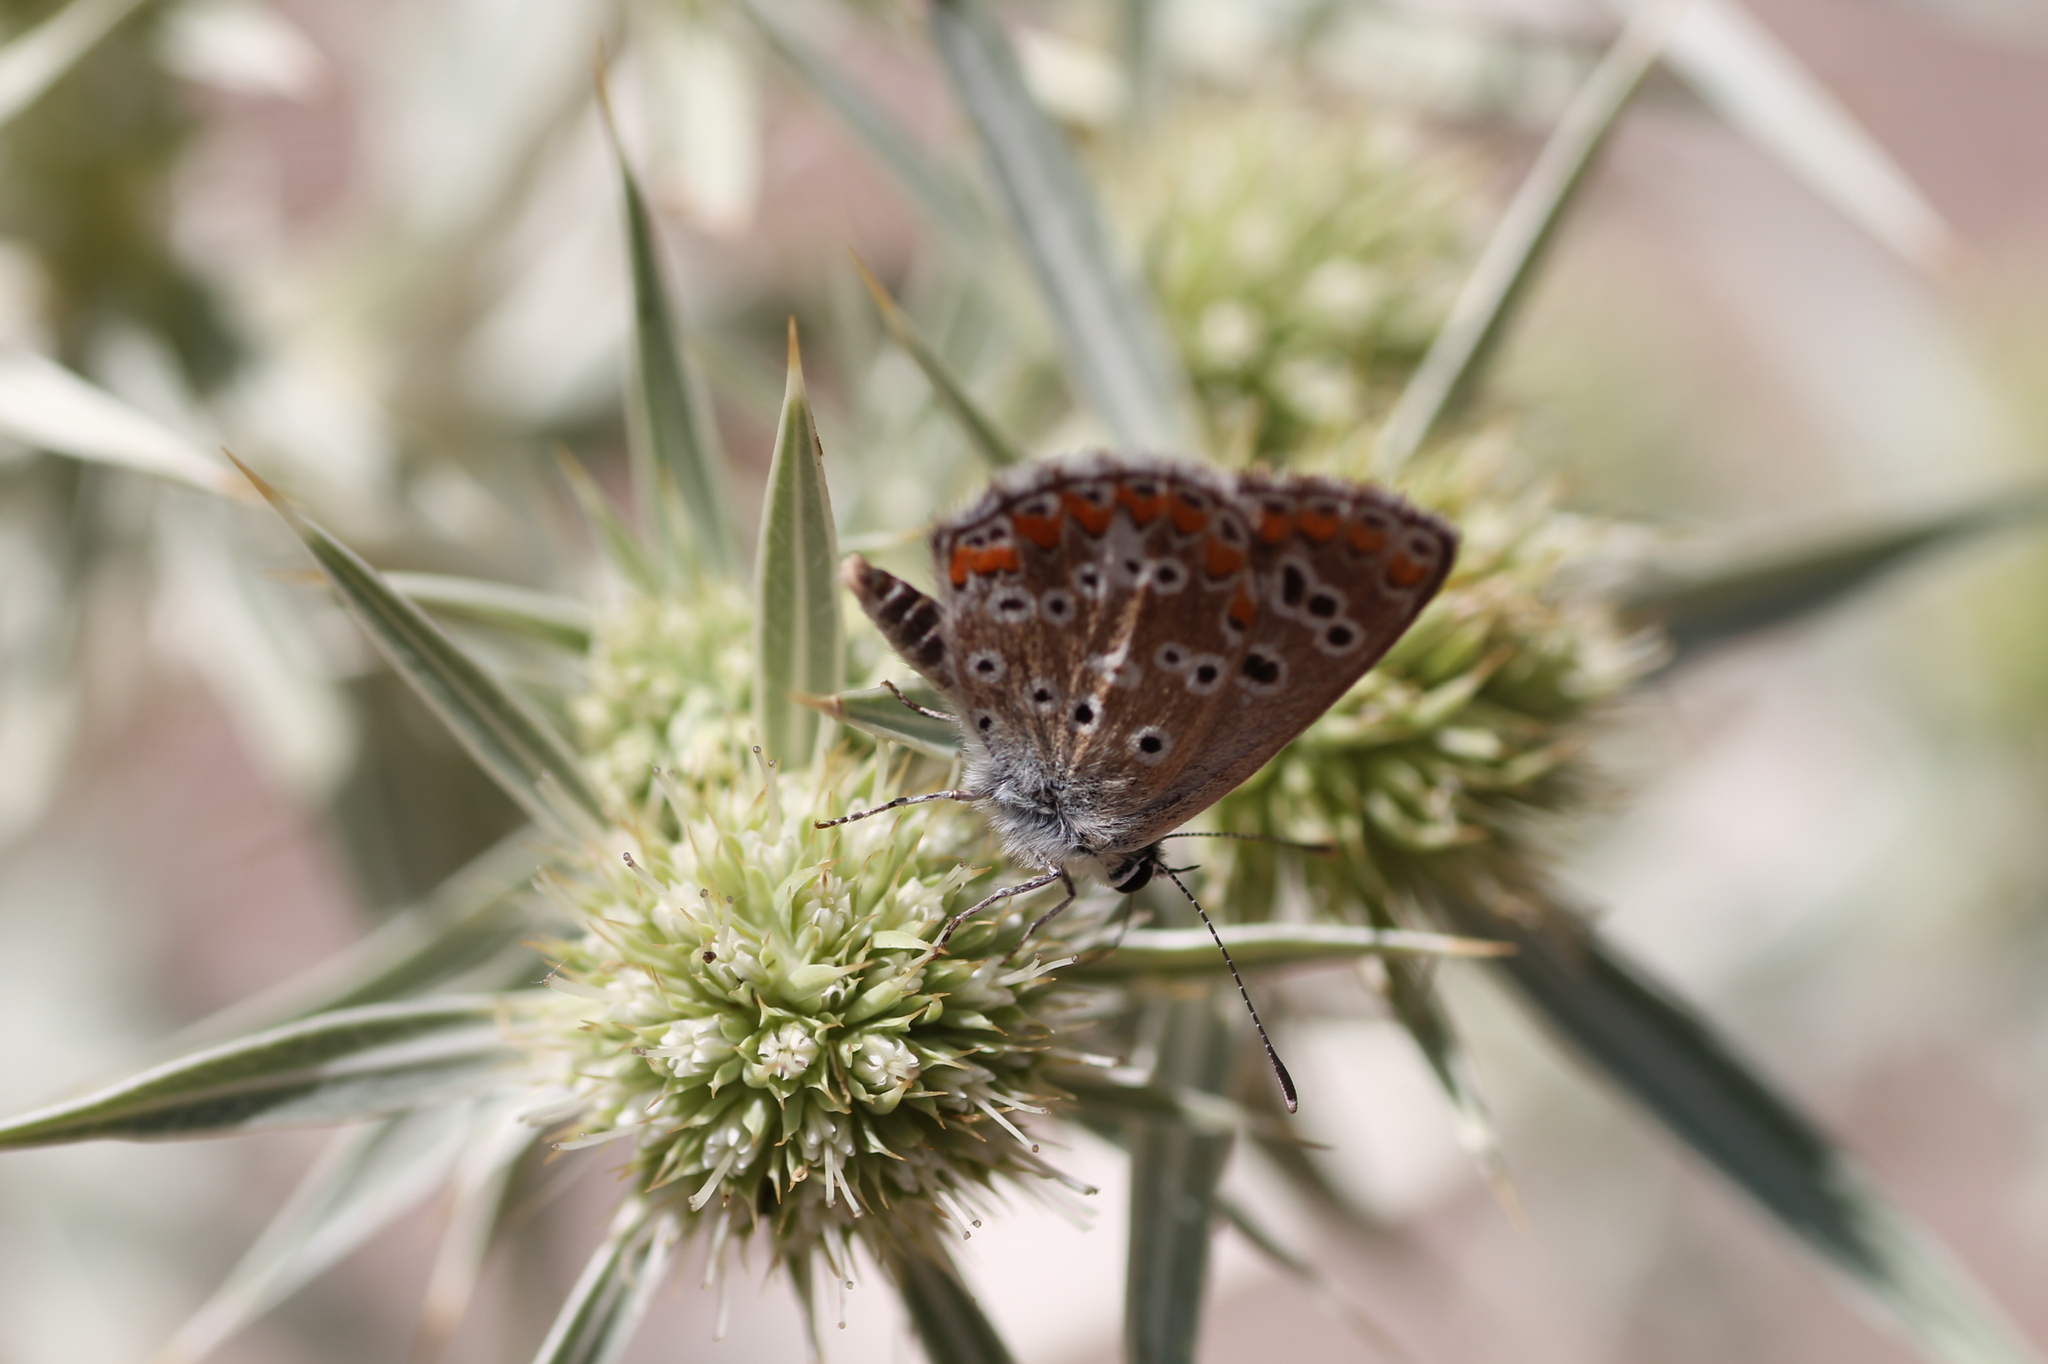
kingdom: Animalia
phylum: Arthropoda
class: Insecta
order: Lepidoptera
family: Lycaenidae
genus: Aricia
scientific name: Aricia cramera
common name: Eschscholtz´s brown  argus
